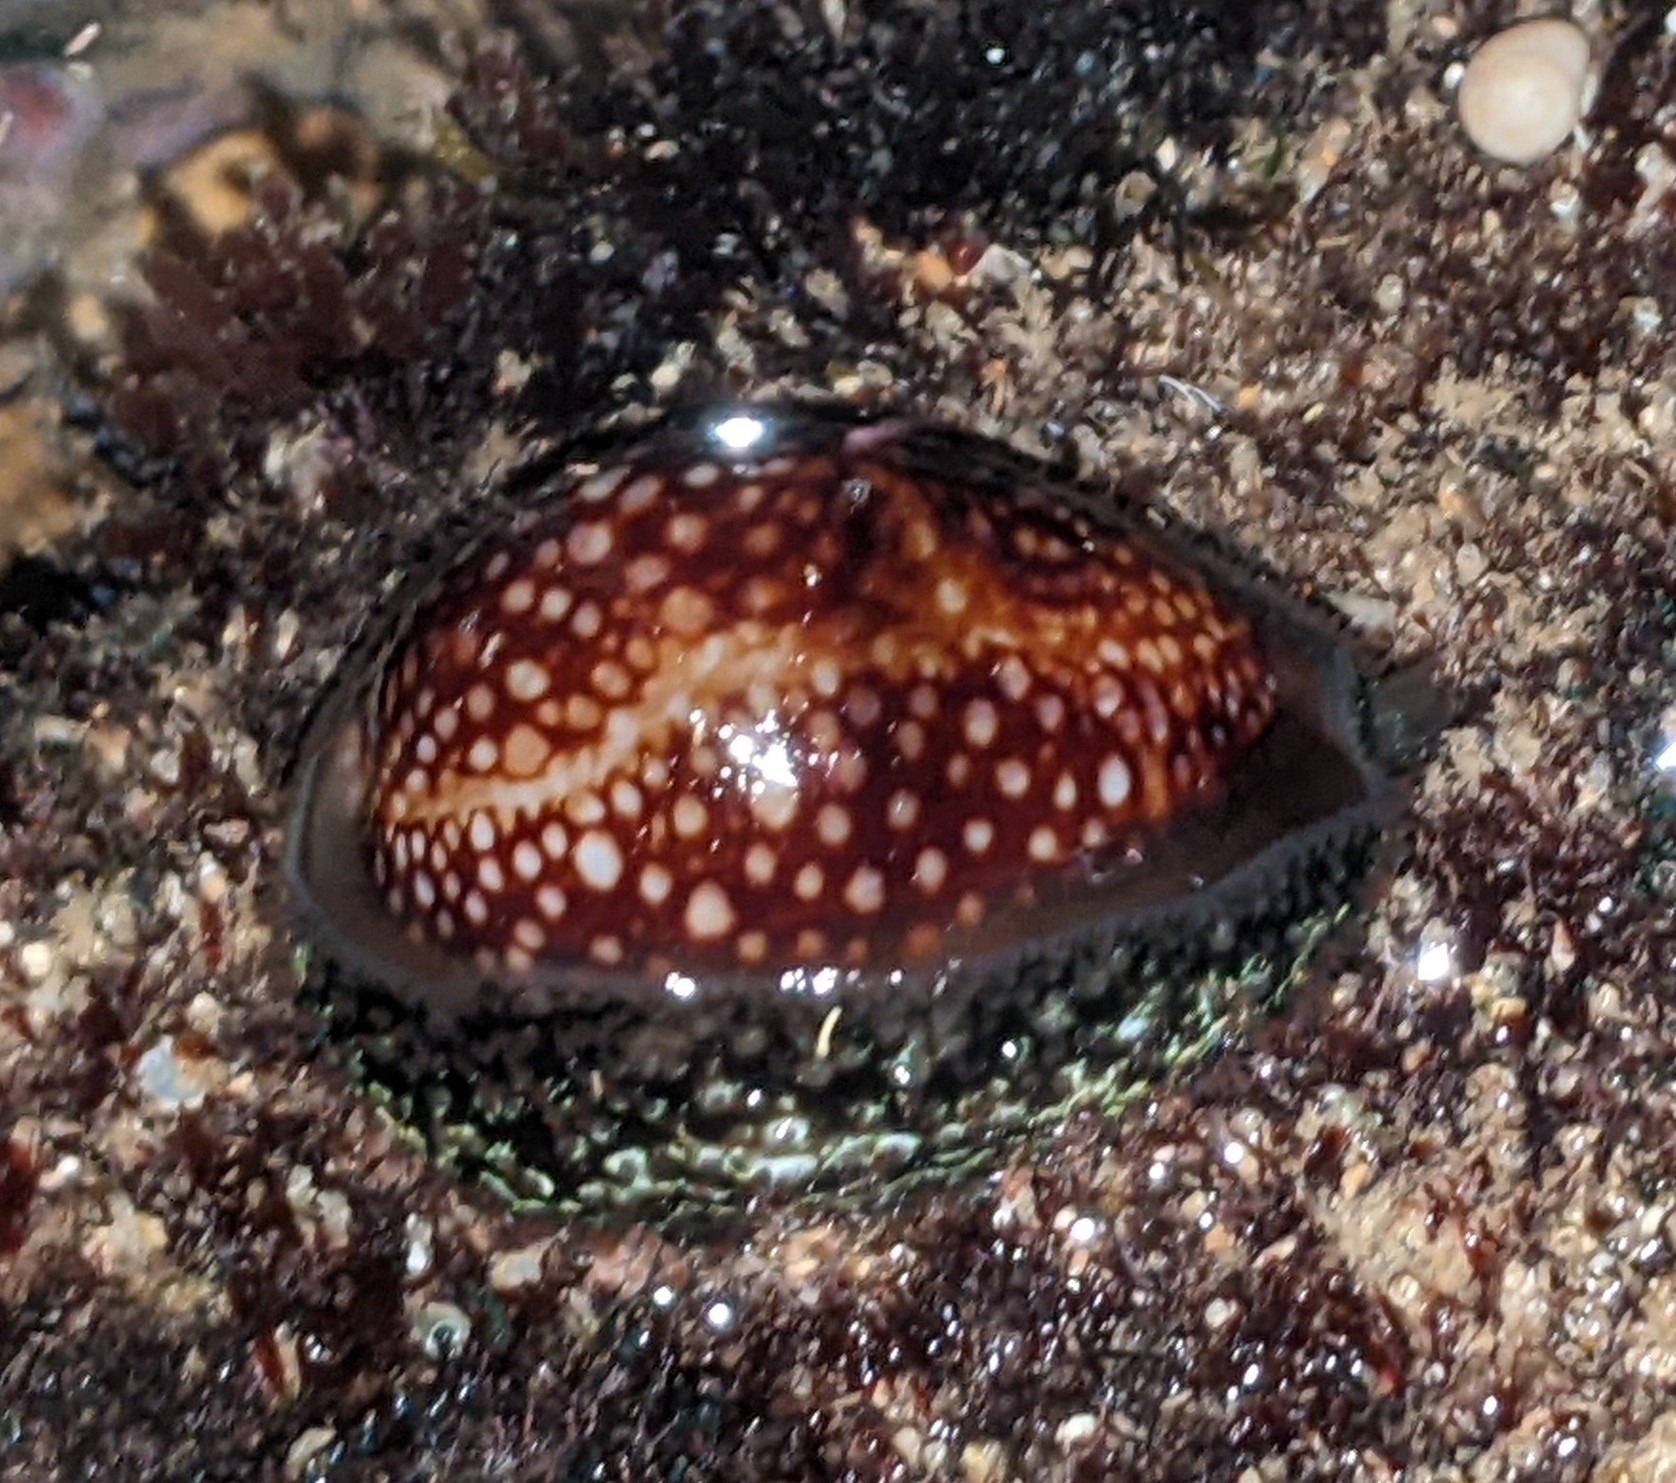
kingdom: Animalia
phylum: Mollusca
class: Gastropoda
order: Littorinimorpha
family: Cypraeidae
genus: Monetaria
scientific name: Monetaria caputophidii
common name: Snake's head cowry
